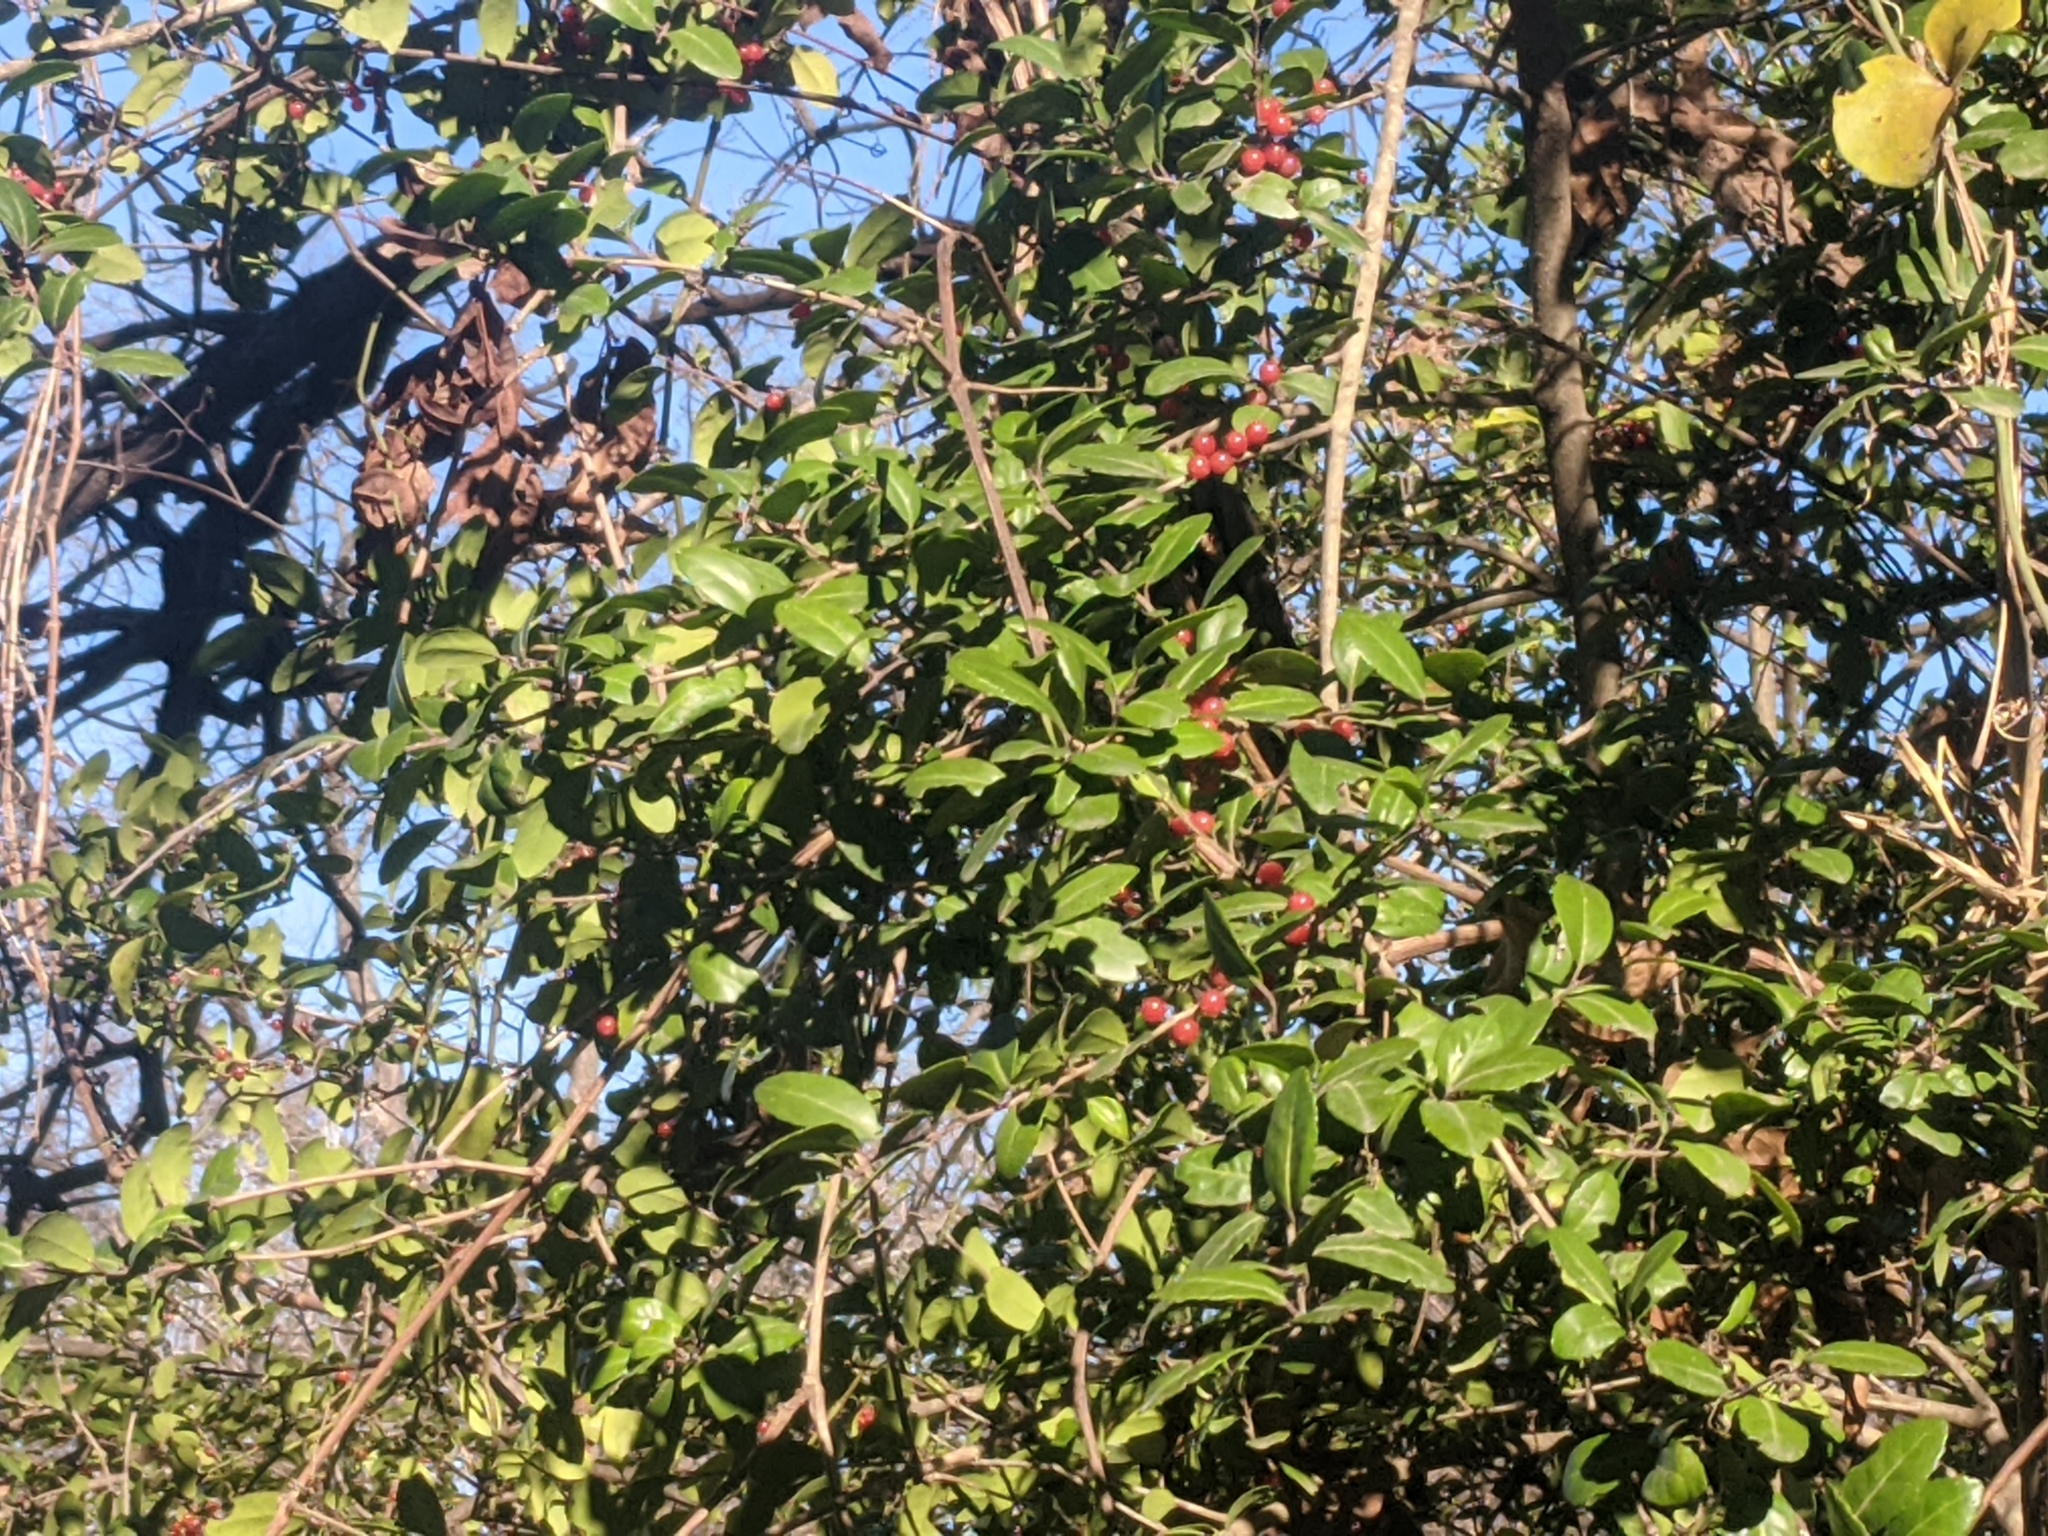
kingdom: Plantae
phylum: Tracheophyta
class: Magnoliopsida
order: Aquifoliales
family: Aquifoliaceae
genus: Ilex
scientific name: Ilex vomitoria
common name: Yaupon holly
